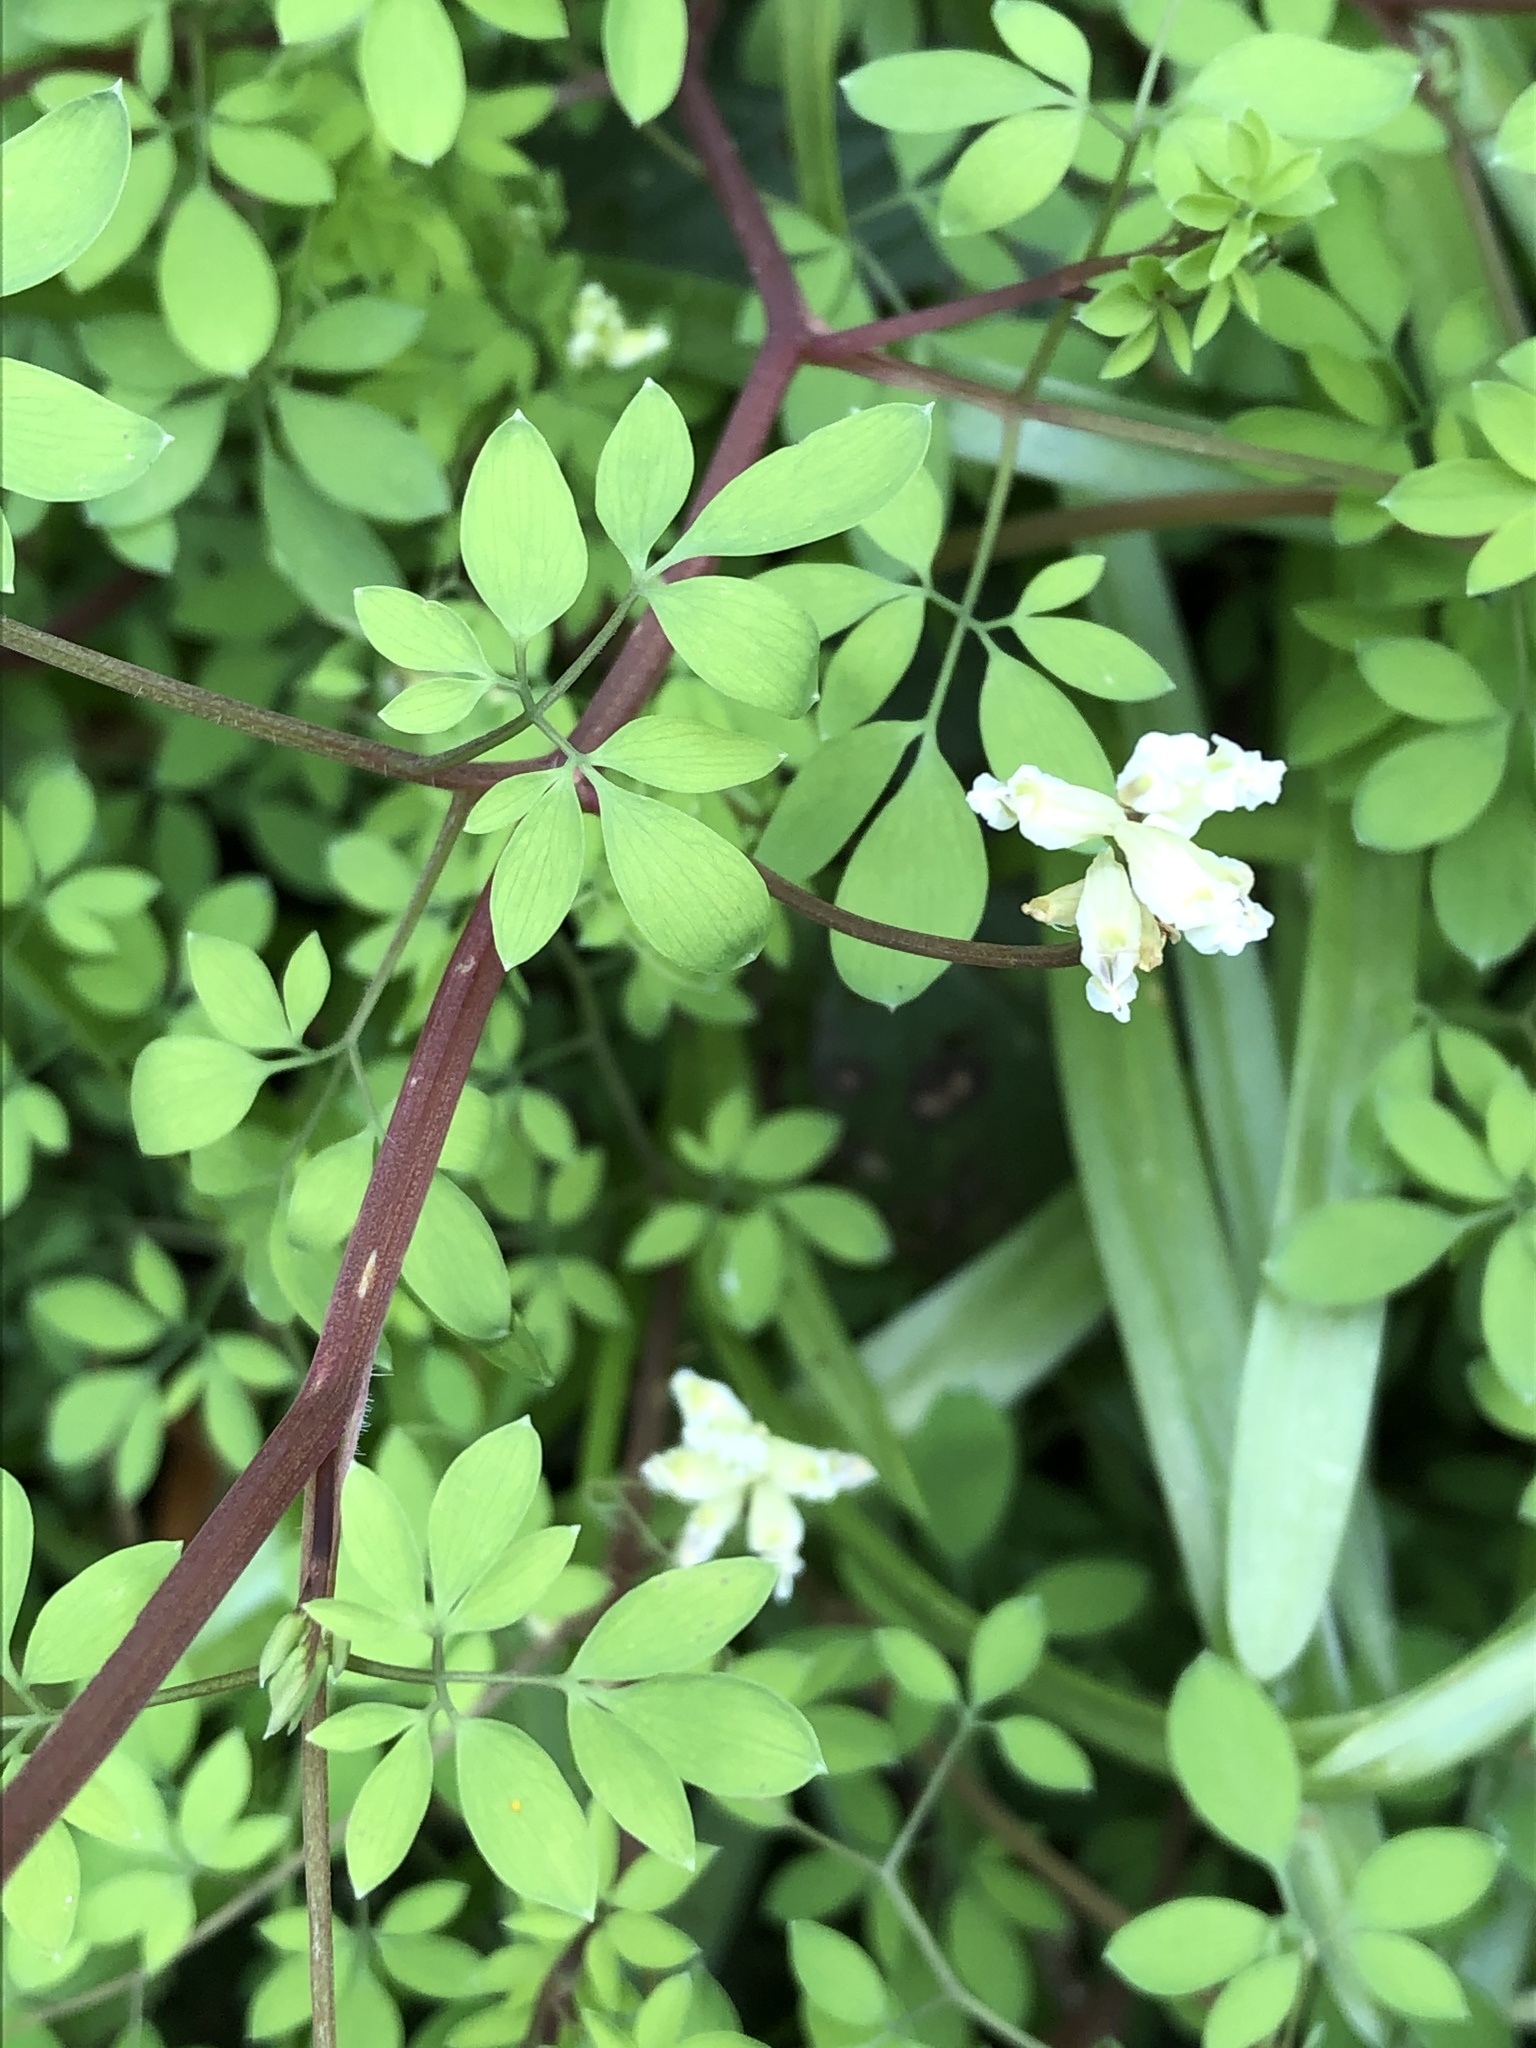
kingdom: Plantae
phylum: Tracheophyta
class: Magnoliopsida
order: Ranunculales
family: Papaveraceae
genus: Ceratocapnos
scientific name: Ceratocapnos claviculata
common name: Climbing corydalis
